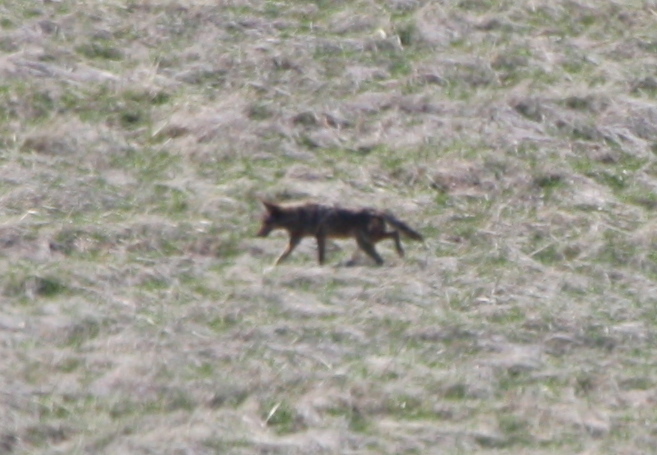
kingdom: Animalia
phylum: Chordata
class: Mammalia
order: Carnivora
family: Canidae
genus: Canis
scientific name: Canis latrans
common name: Coyote
